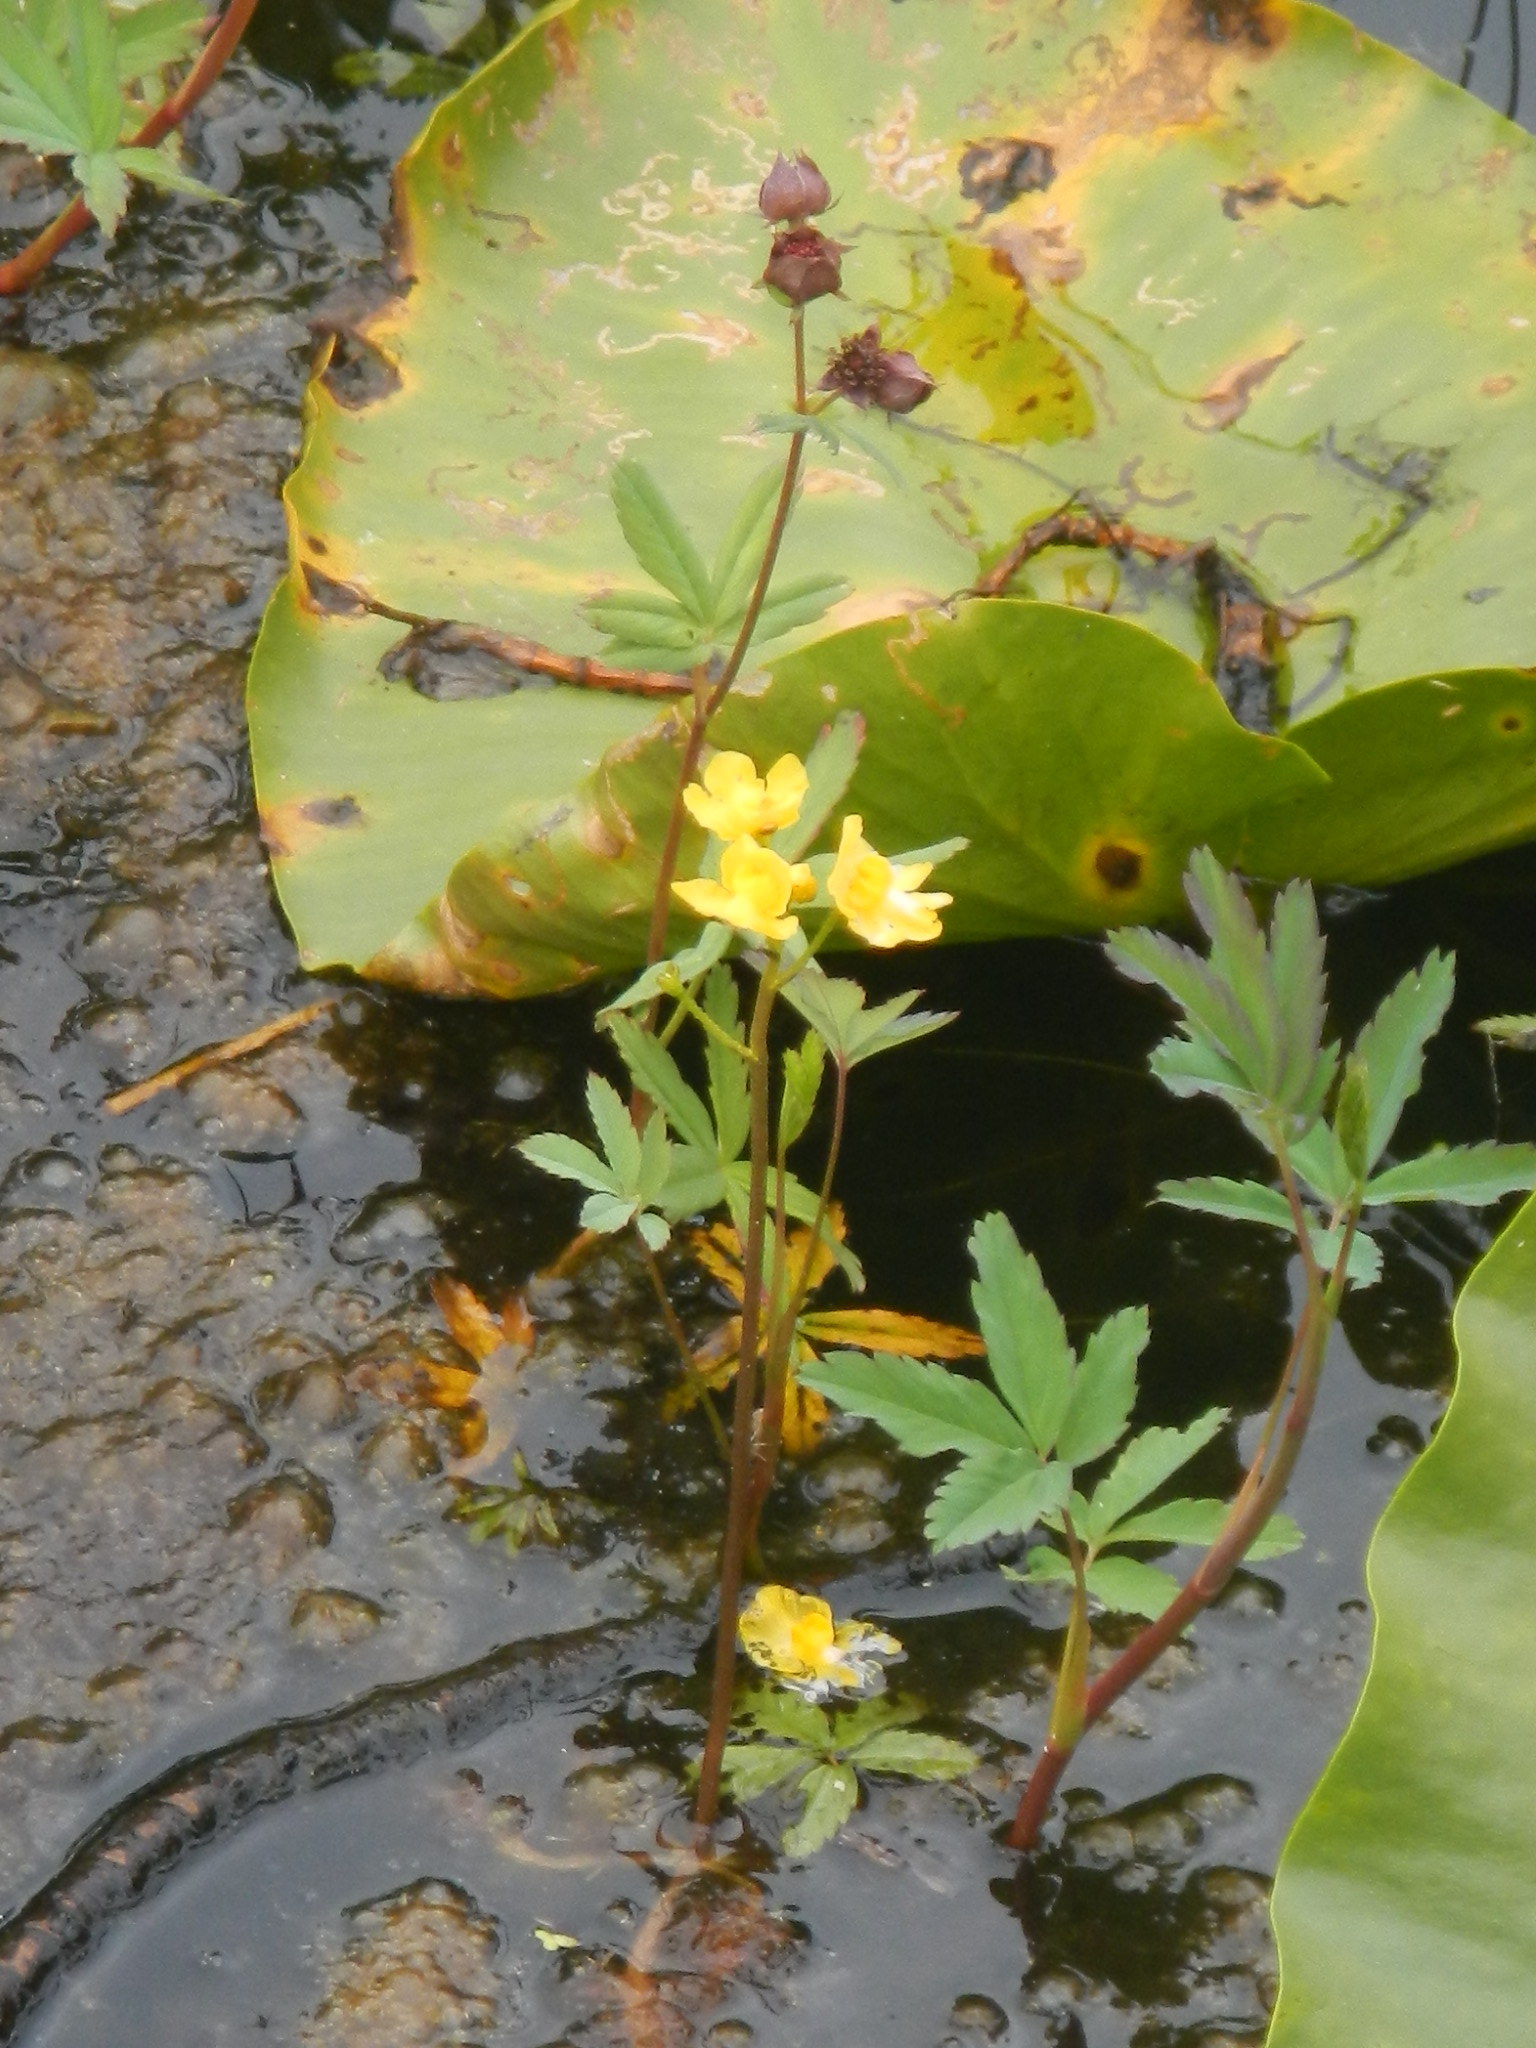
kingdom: Plantae
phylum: Tracheophyta
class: Magnoliopsida
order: Lamiales
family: Lentibulariaceae
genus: Utricularia
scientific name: Utricularia macrorhiza
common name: Common bladderwort
